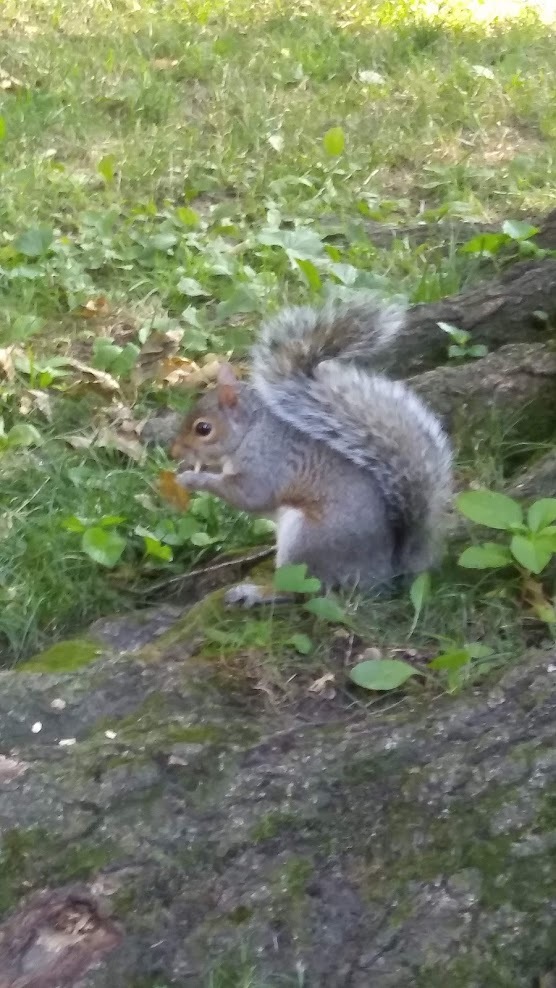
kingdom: Animalia
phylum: Chordata
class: Mammalia
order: Rodentia
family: Sciuridae
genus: Sciurus
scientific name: Sciurus carolinensis
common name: Eastern gray squirrel
